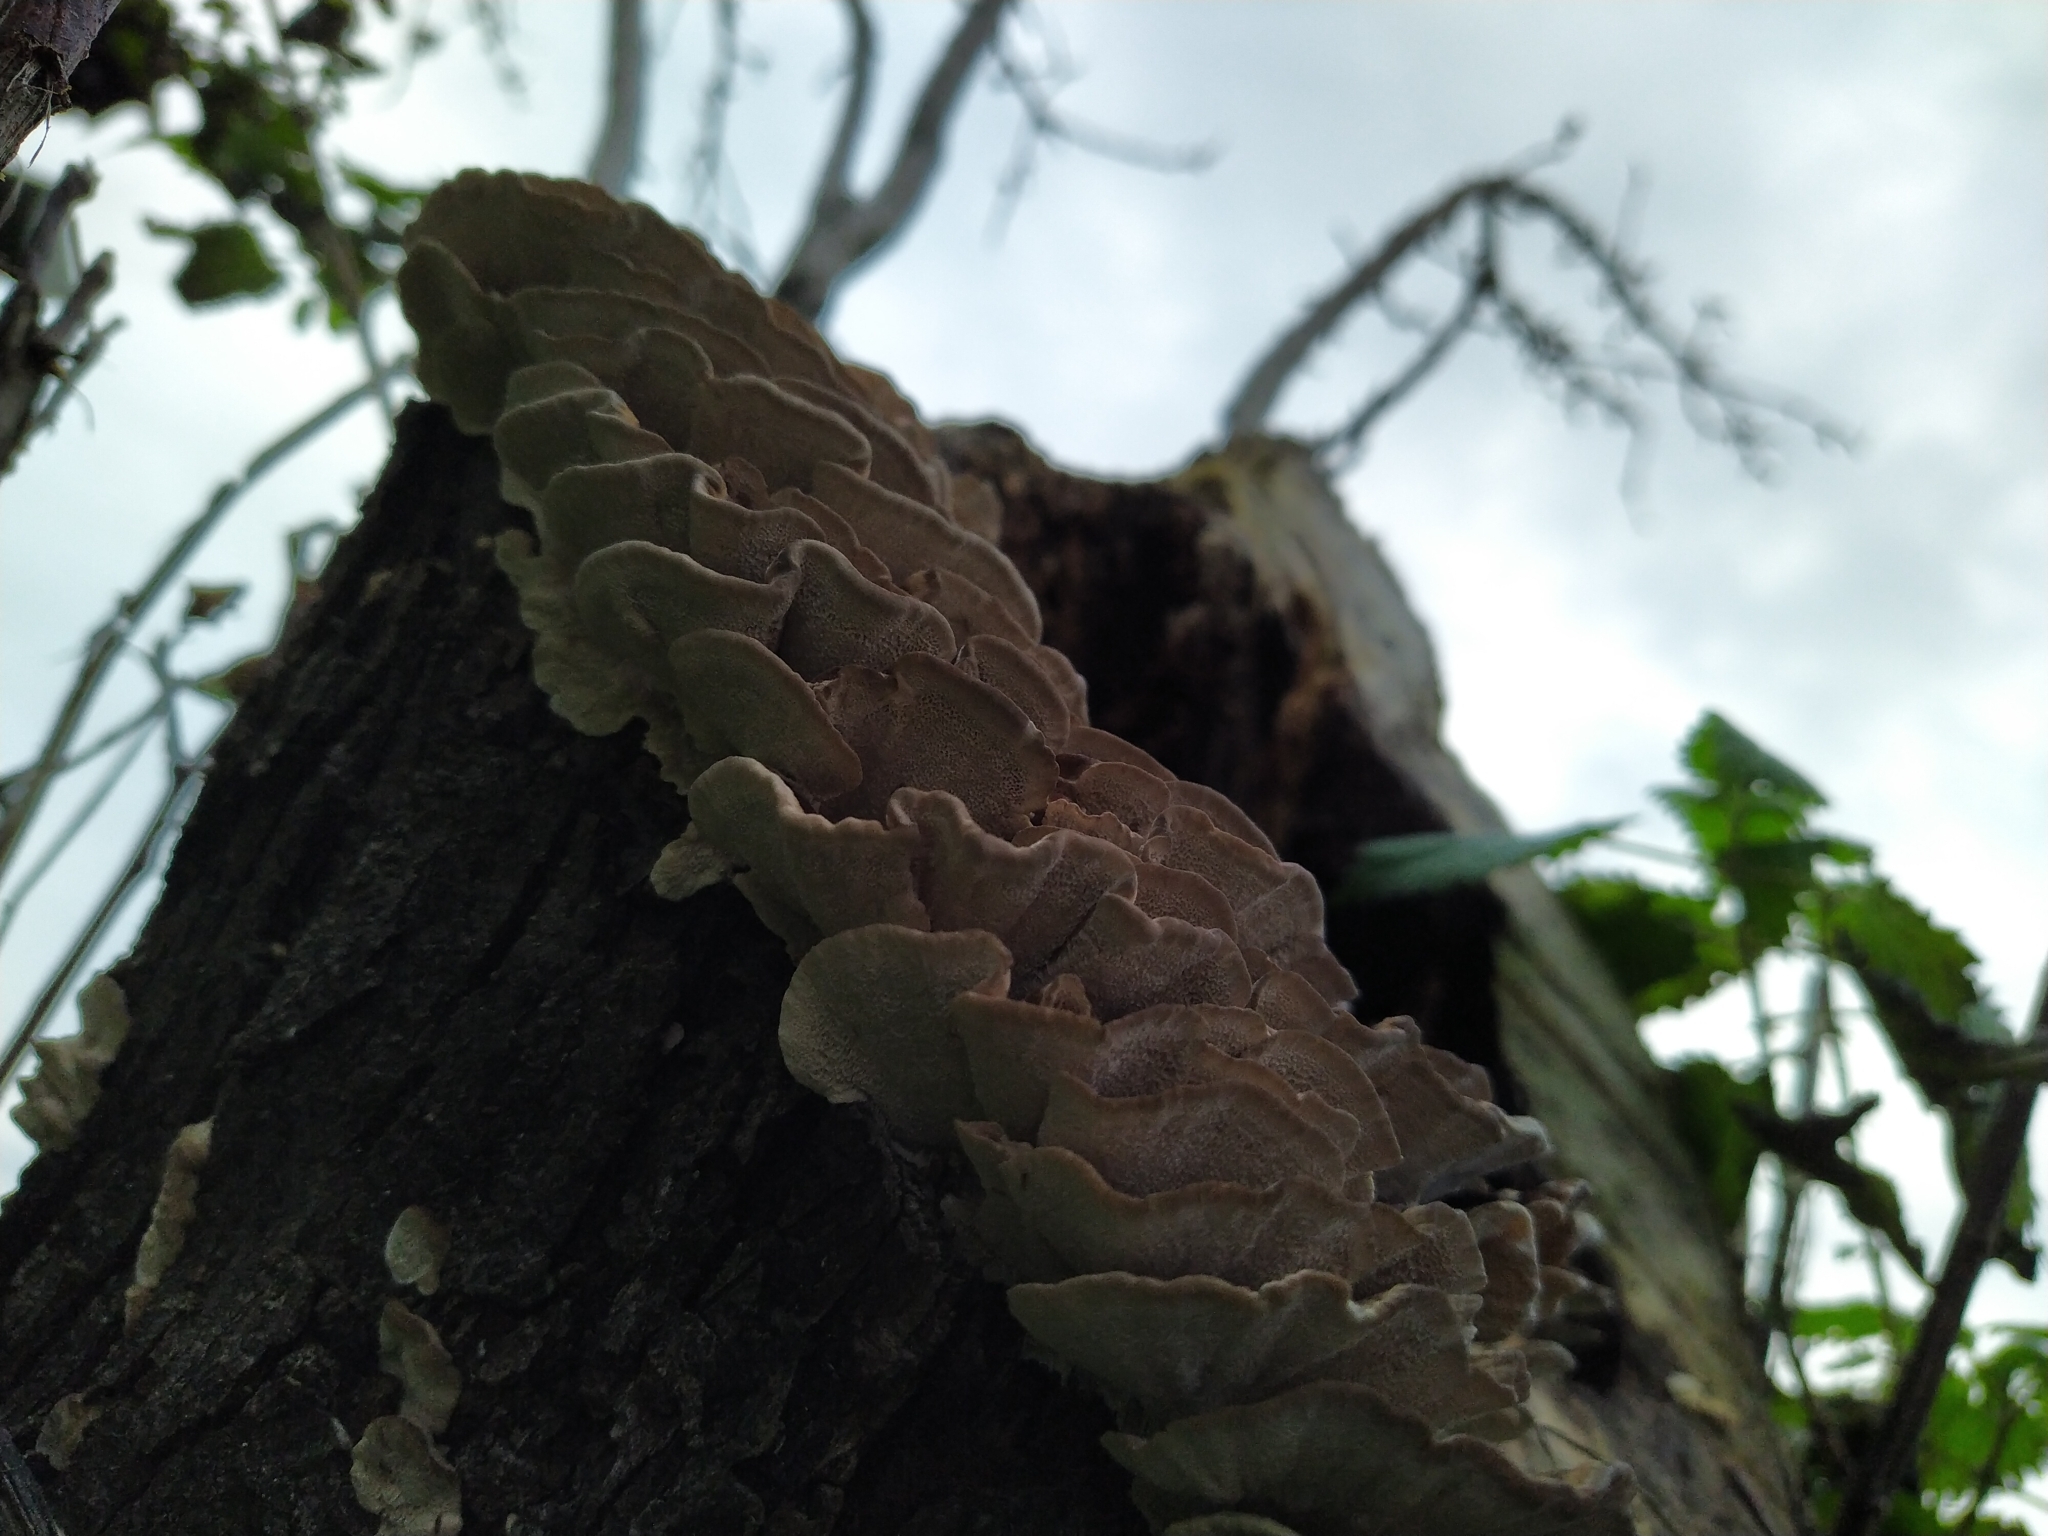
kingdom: Fungi
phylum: Basidiomycota
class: Agaricomycetes
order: Polyporales
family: Polyporaceae
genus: Trametes
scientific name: Trametes versicolor
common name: Turkeytail
